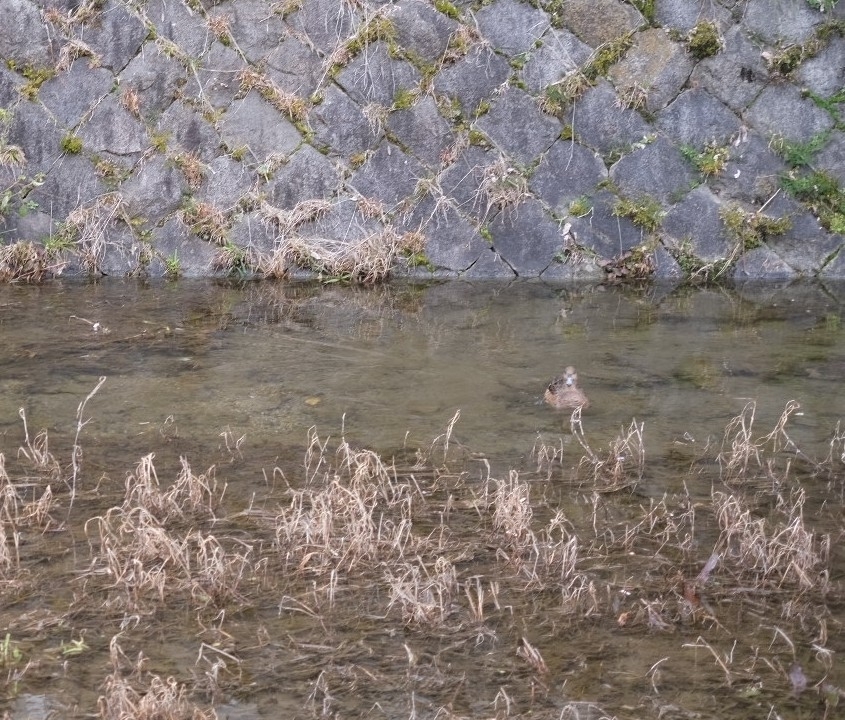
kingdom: Animalia
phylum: Chordata
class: Aves
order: Anseriformes
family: Anatidae
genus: Mareca
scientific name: Mareca penelope
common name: Eurasian wigeon
